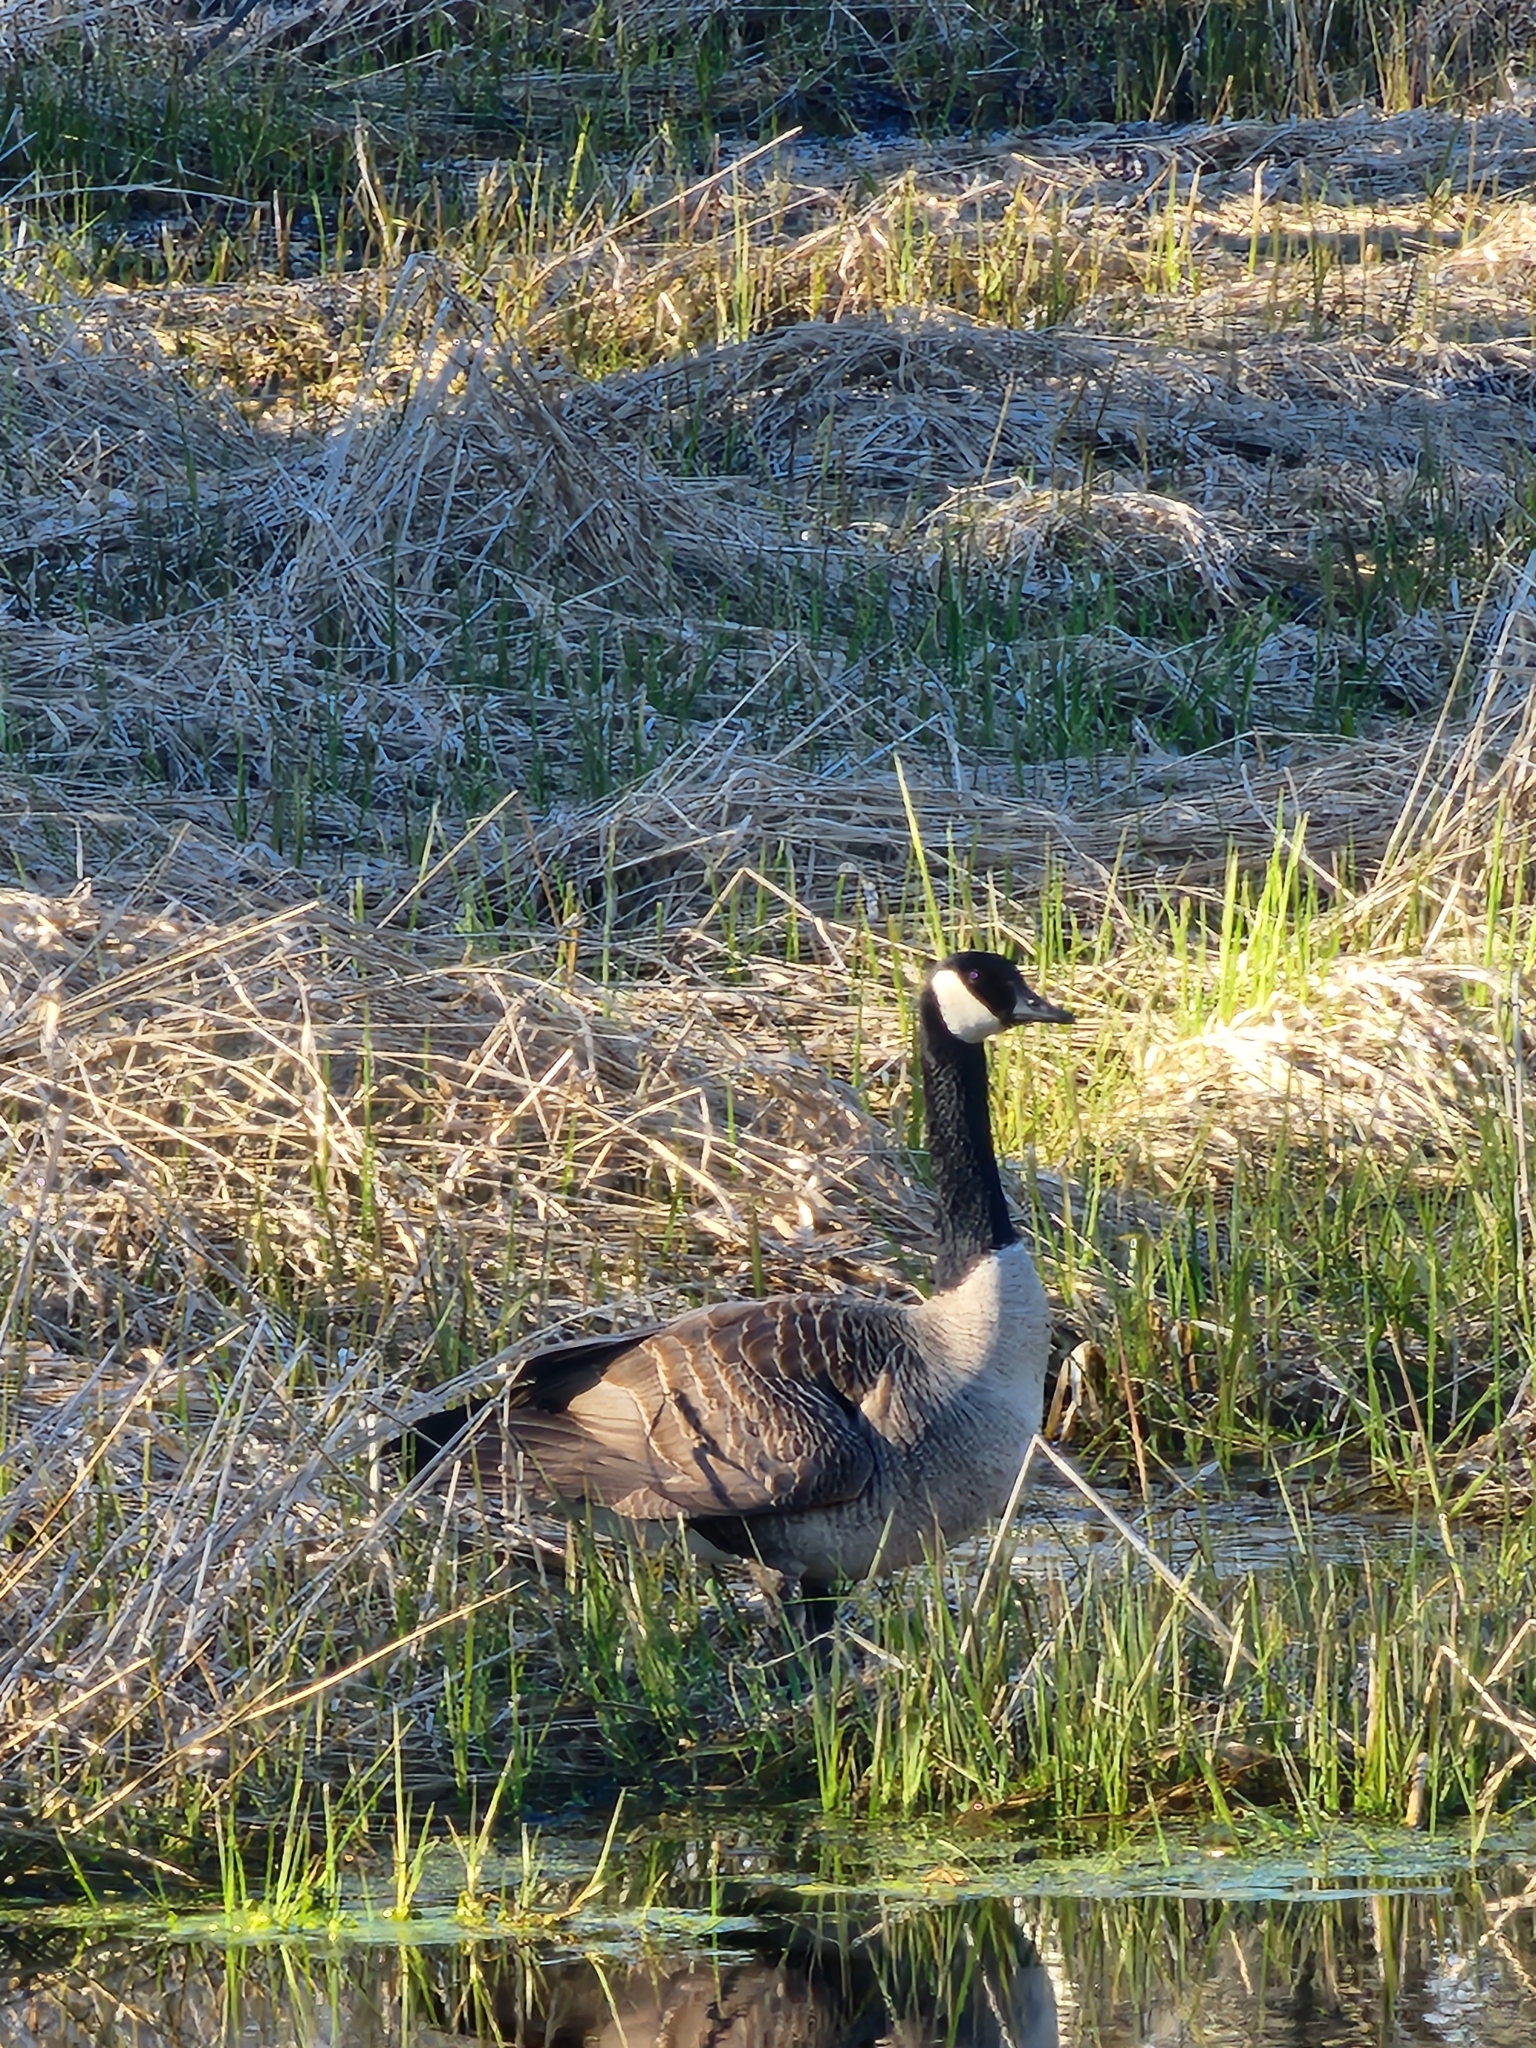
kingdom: Animalia
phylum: Chordata
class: Aves
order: Anseriformes
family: Anatidae
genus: Branta
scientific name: Branta canadensis
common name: Canada goose
